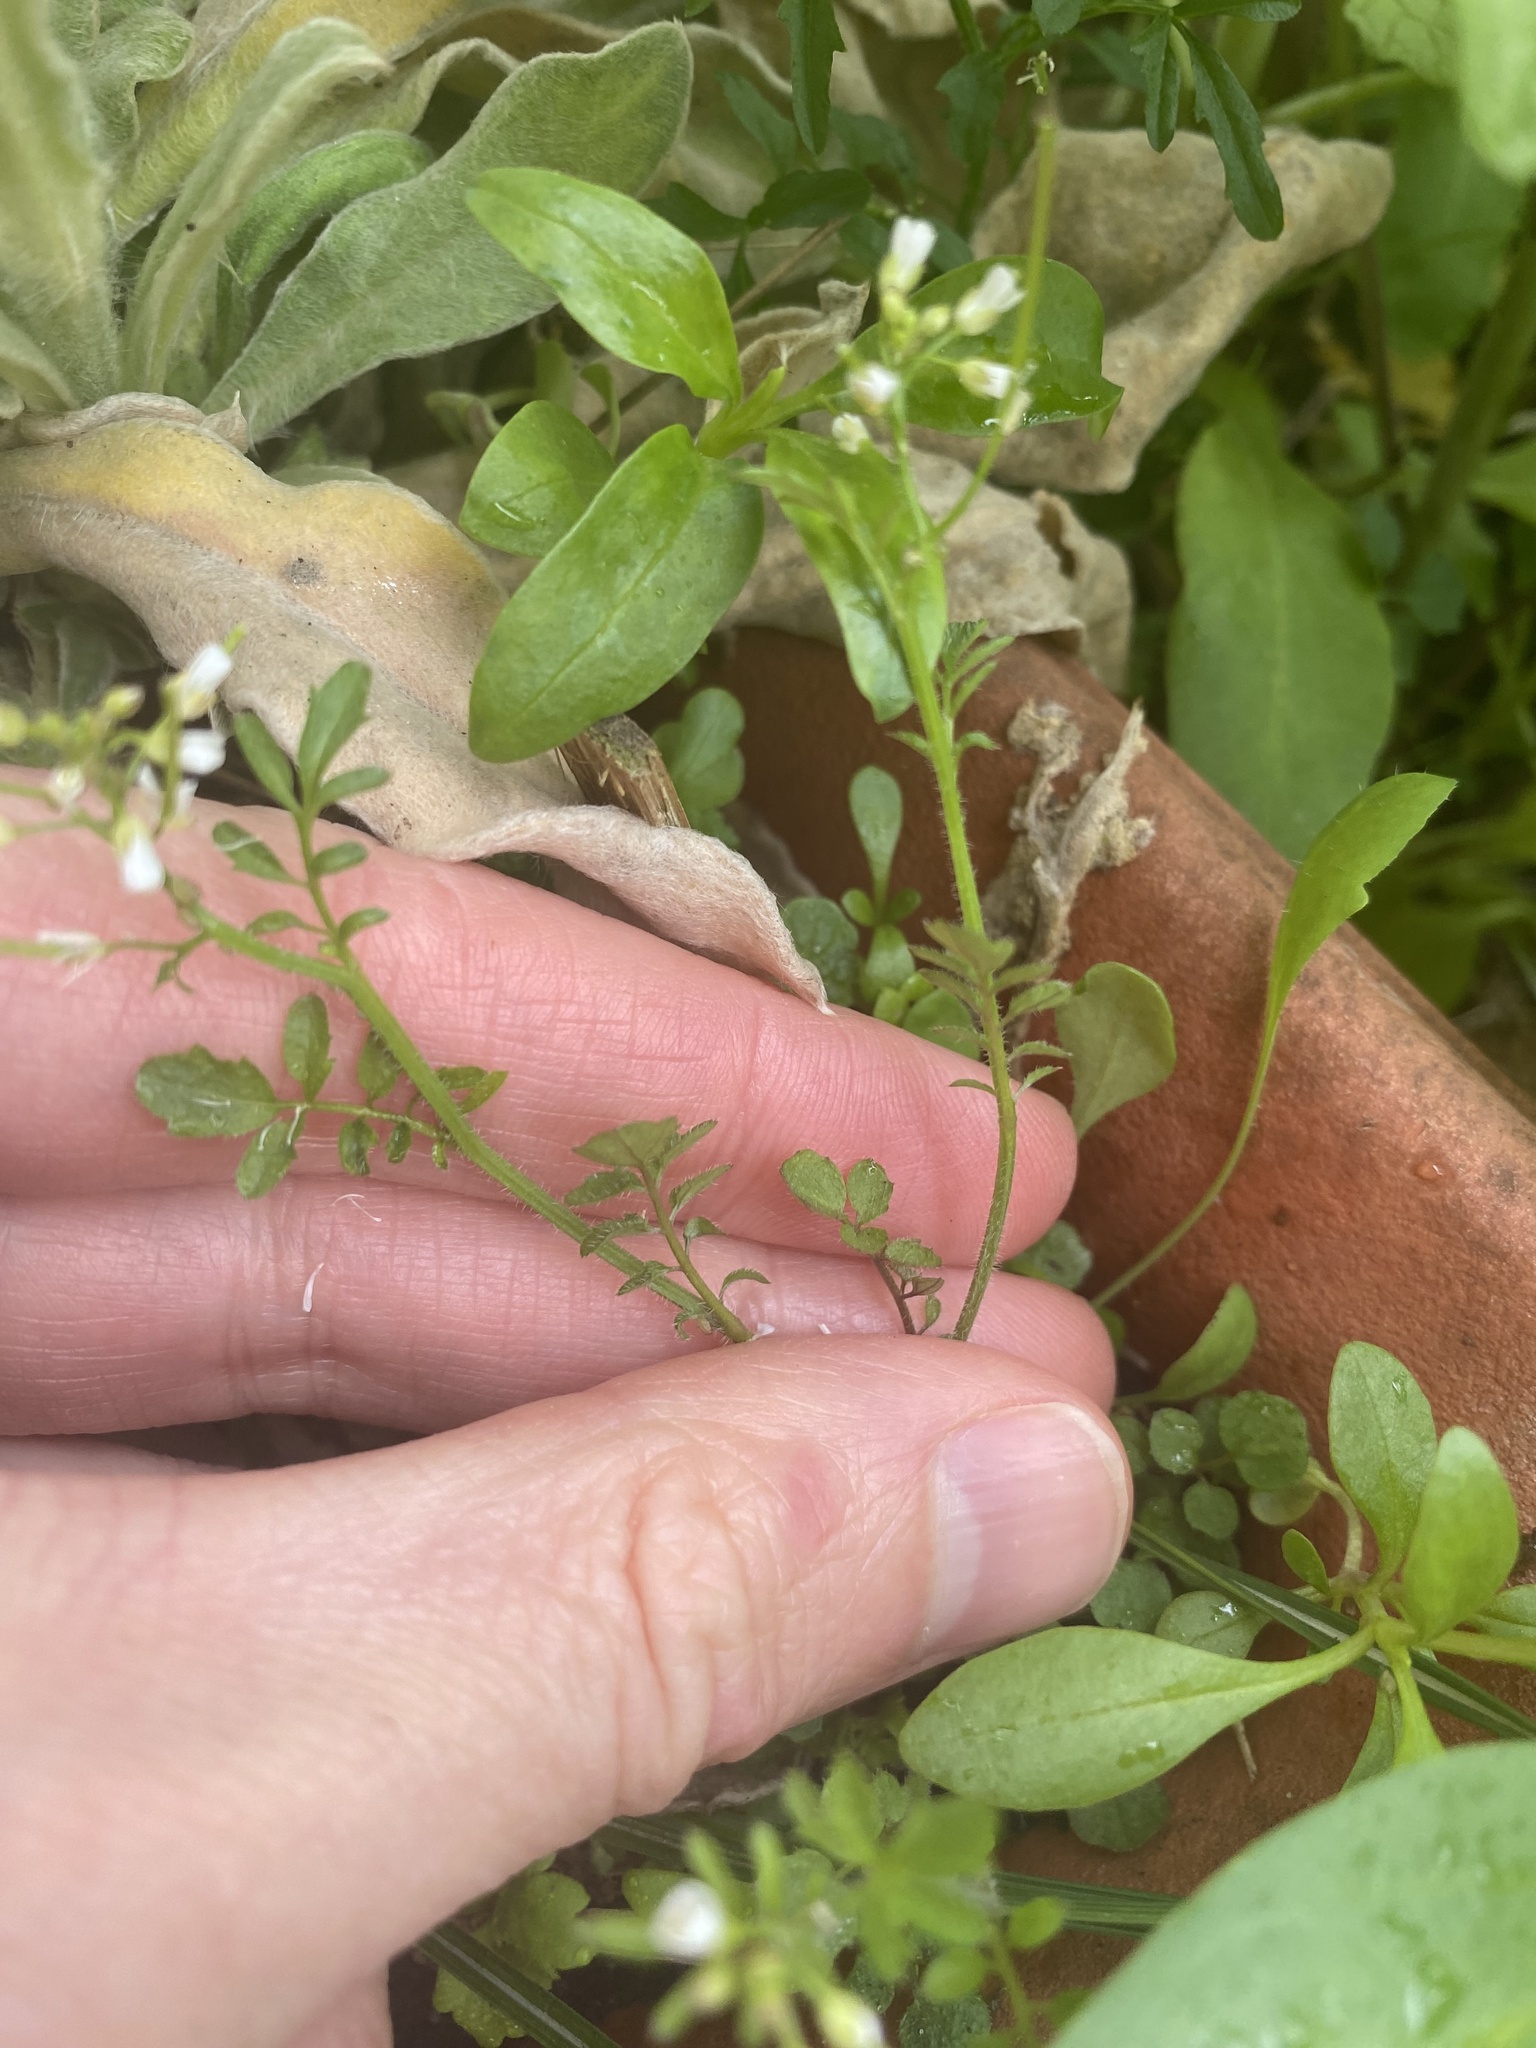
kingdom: Plantae
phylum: Tracheophyta
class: Magnoliopsida
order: Brassicales
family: Brassicaceae
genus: Cardamine
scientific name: Cardamine flexuosa
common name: Woodland bittercress
